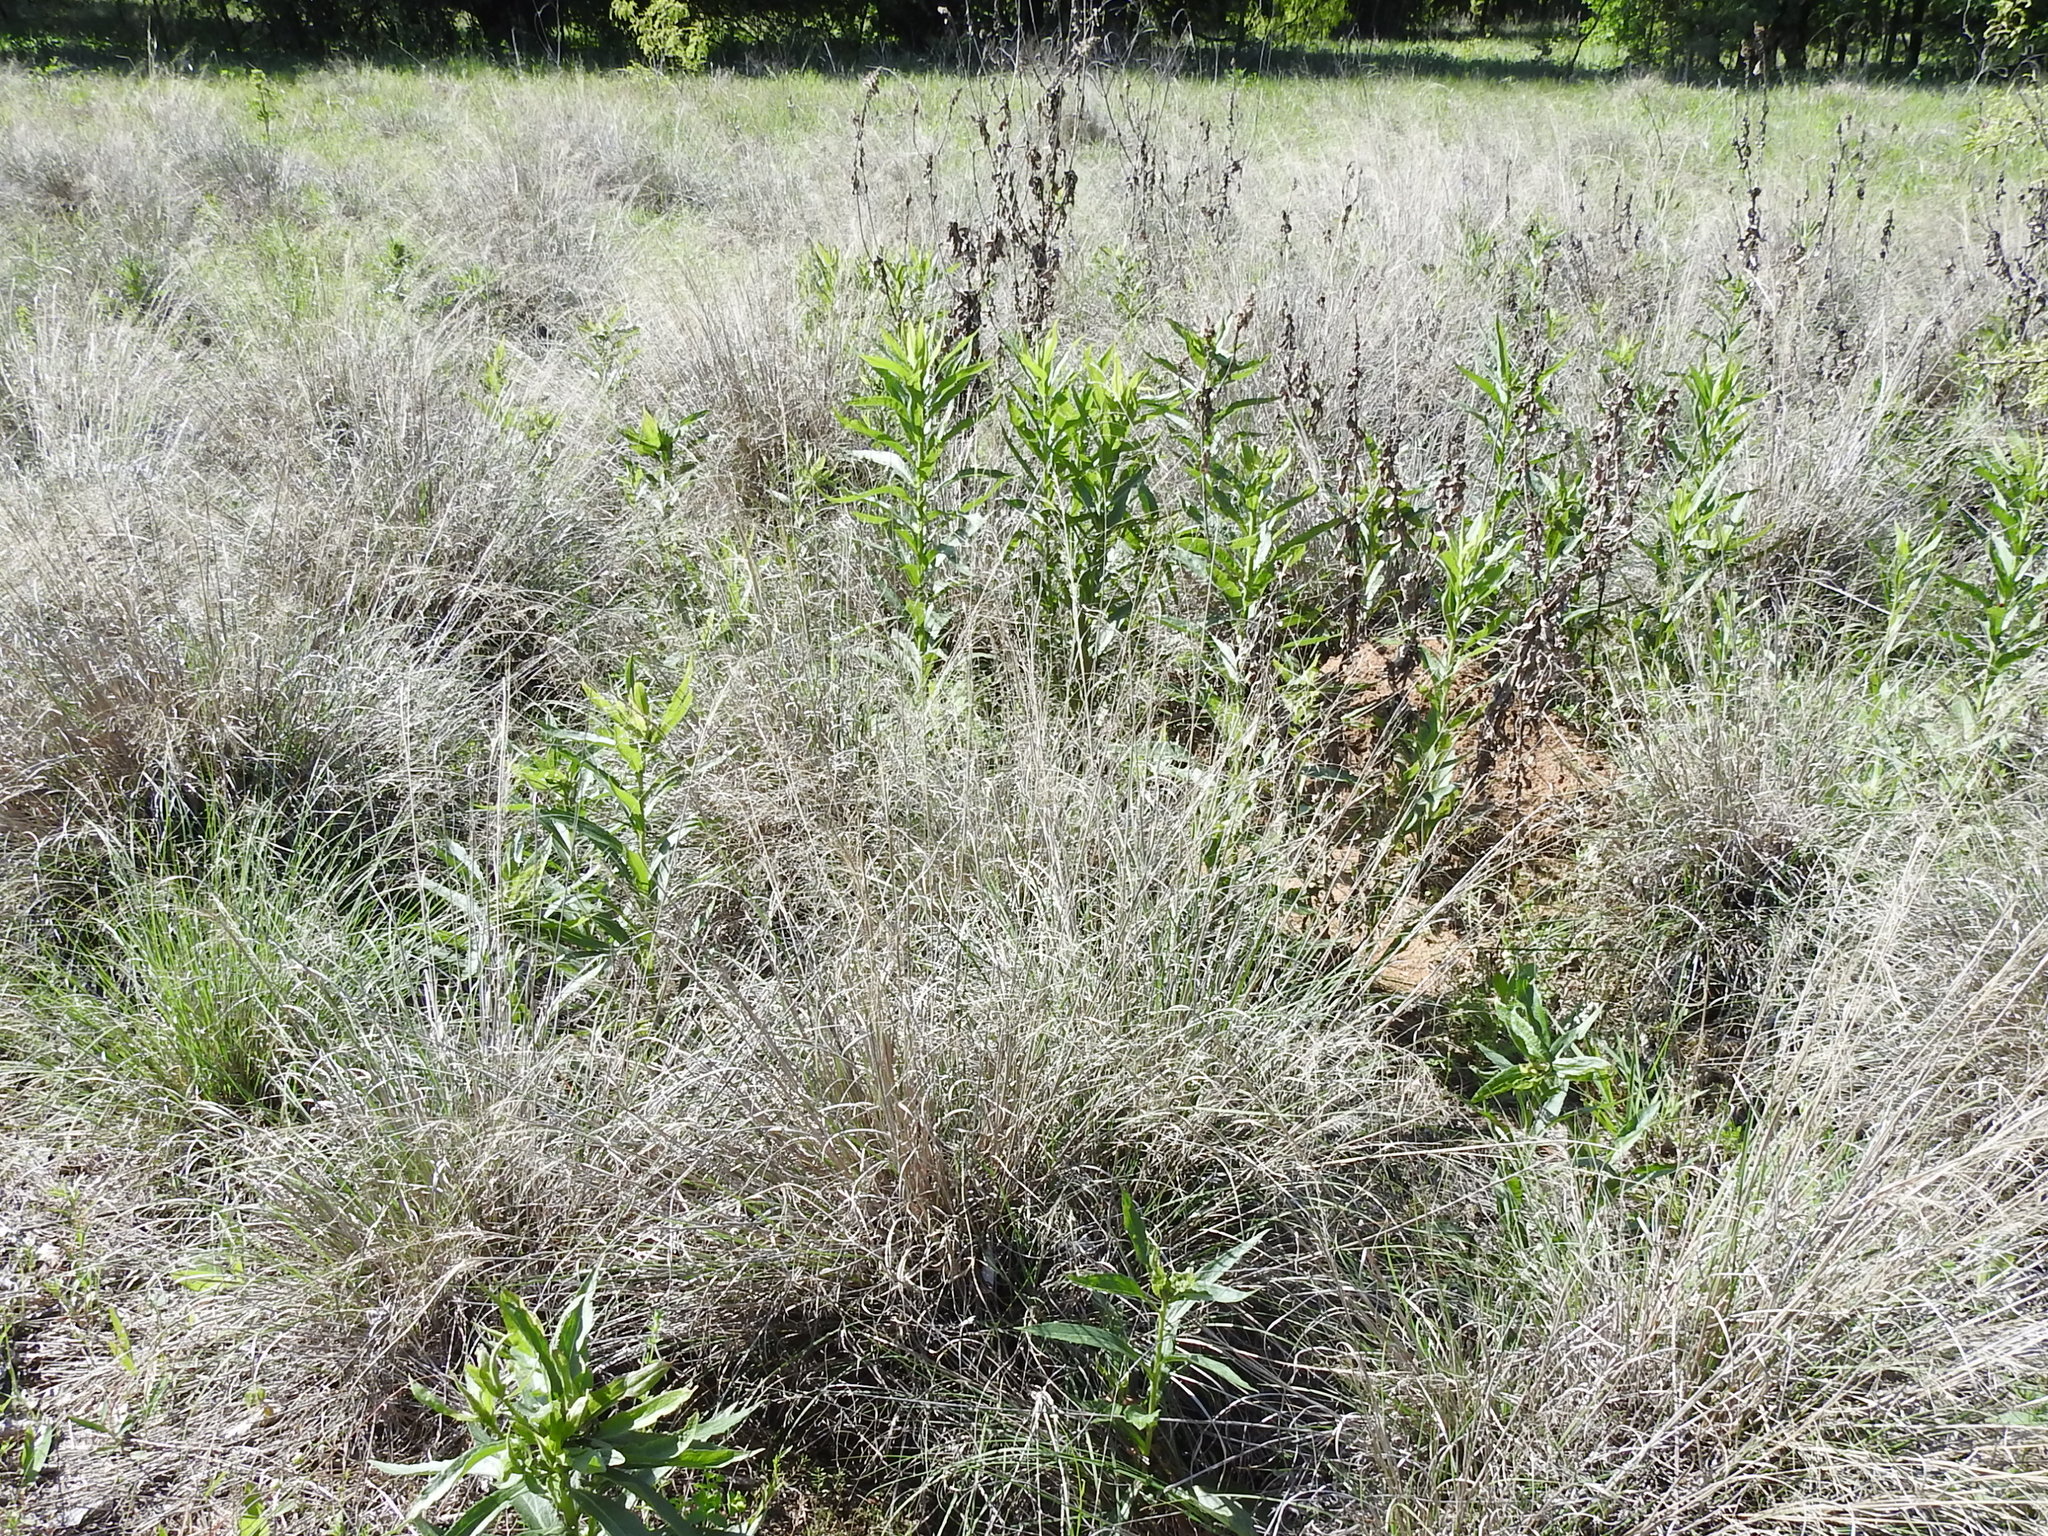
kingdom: Plantae
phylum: Tracheophyta
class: Liliopsida
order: Poales
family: Poaceae
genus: Muhlenbergia
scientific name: Muhlenbergia reverchonii
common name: Seep muhly
